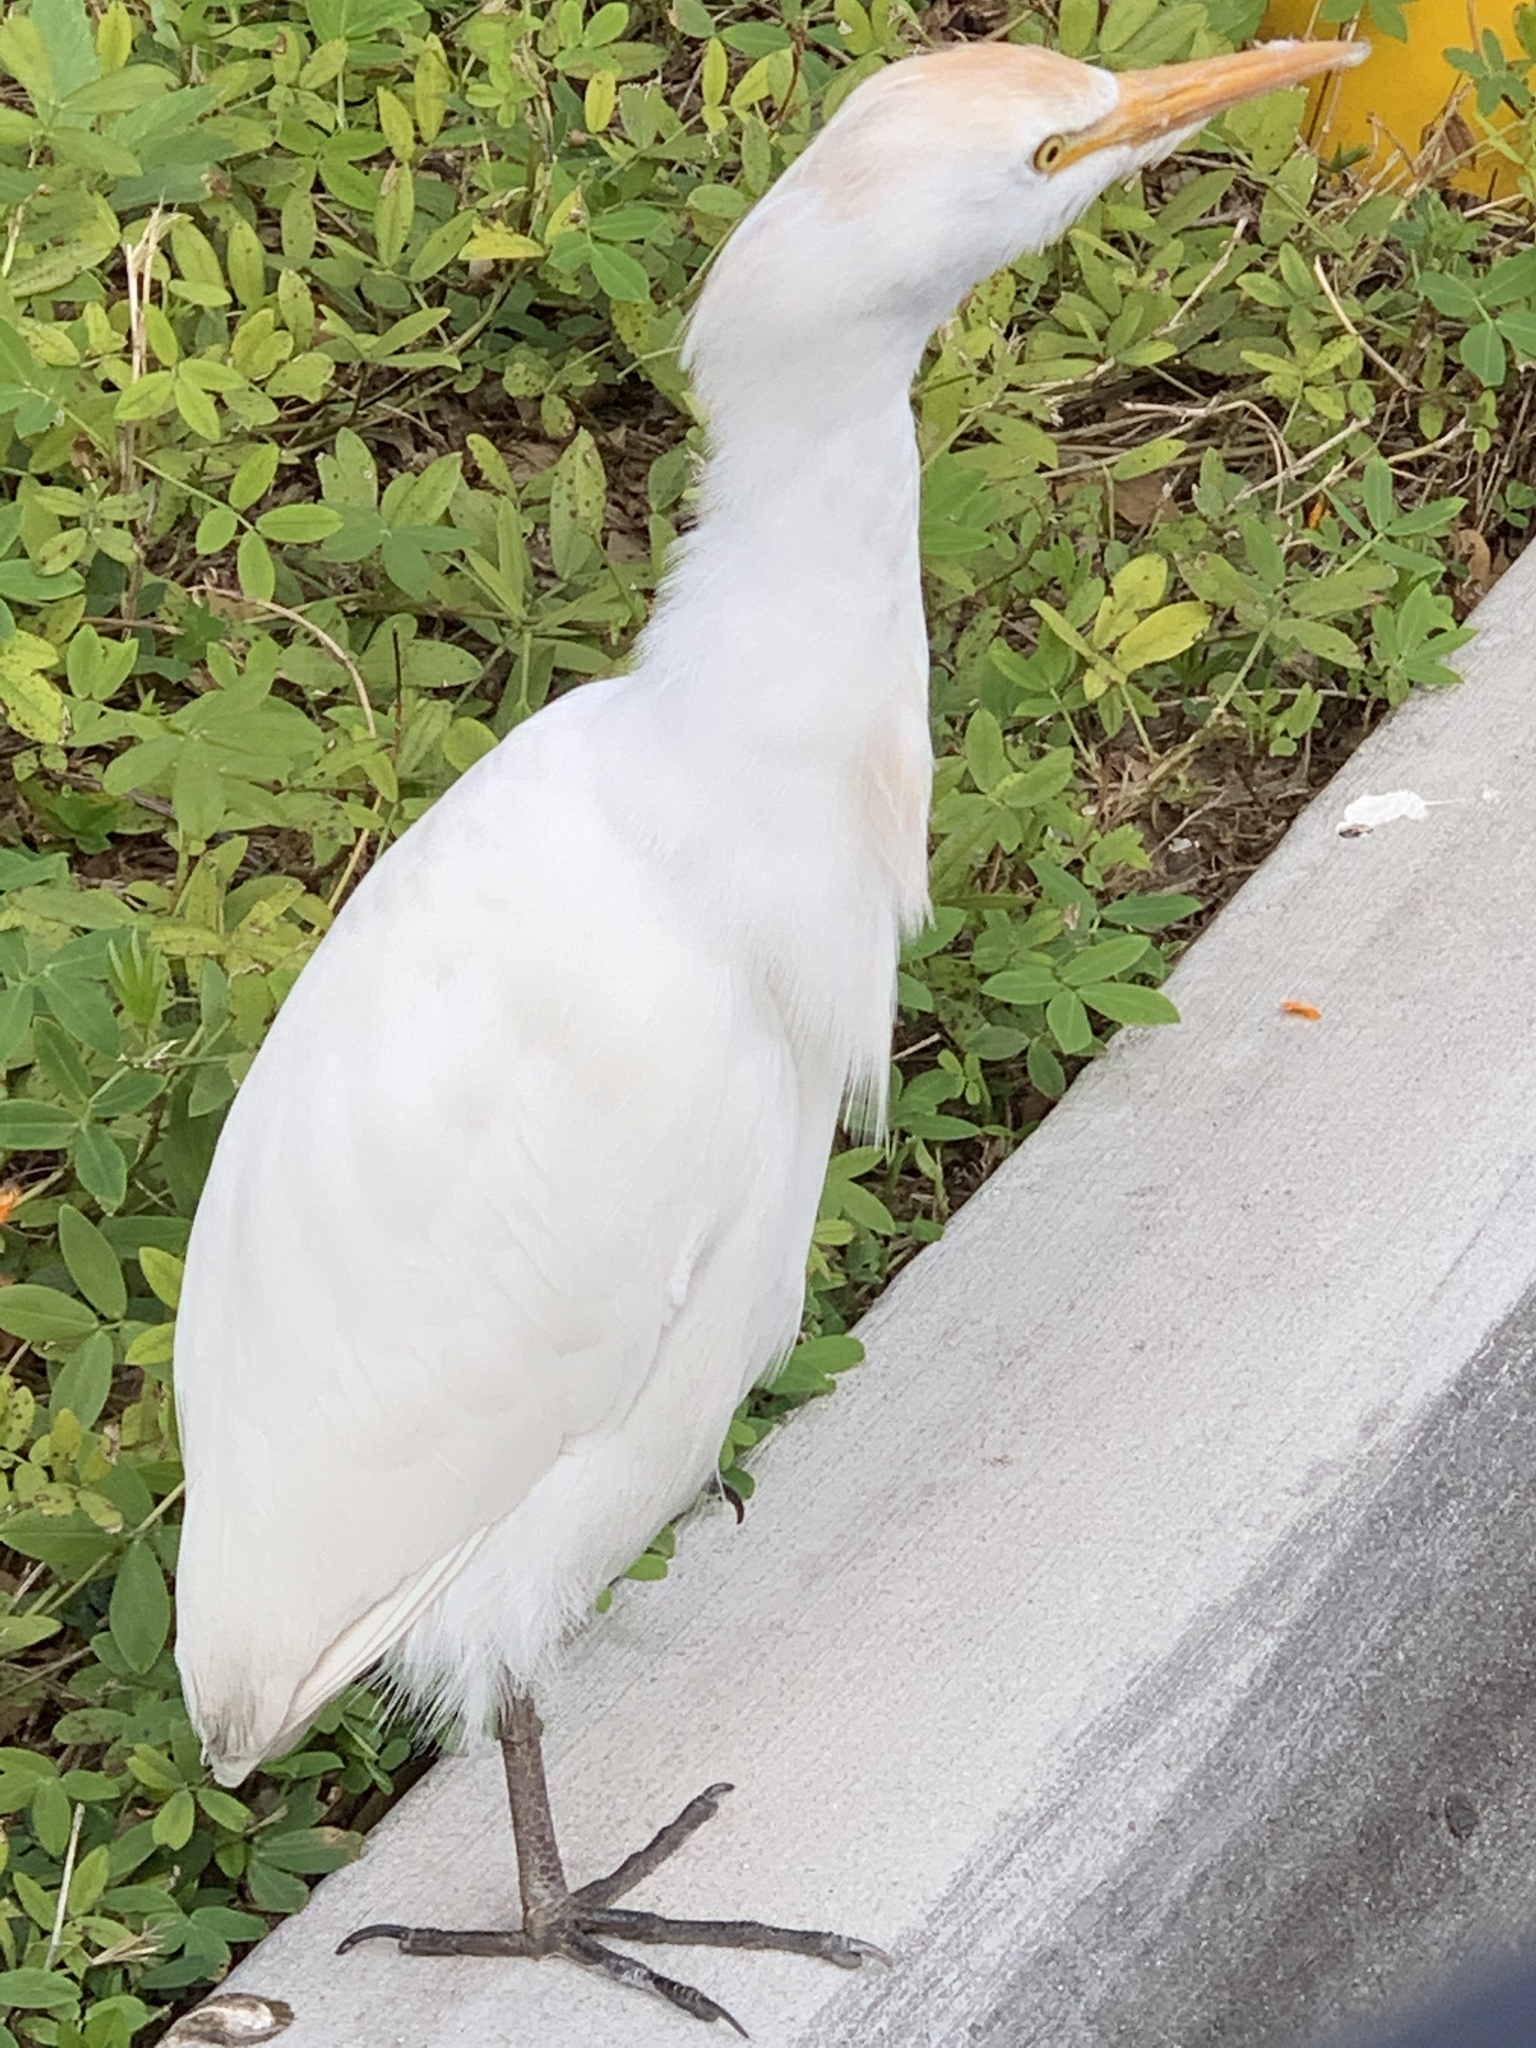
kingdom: Animalia
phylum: Chordata
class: Aves
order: Pelecaniformes
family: Ardeidae
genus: Bubulcus
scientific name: Bubulcus ibis
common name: Cattle egret
